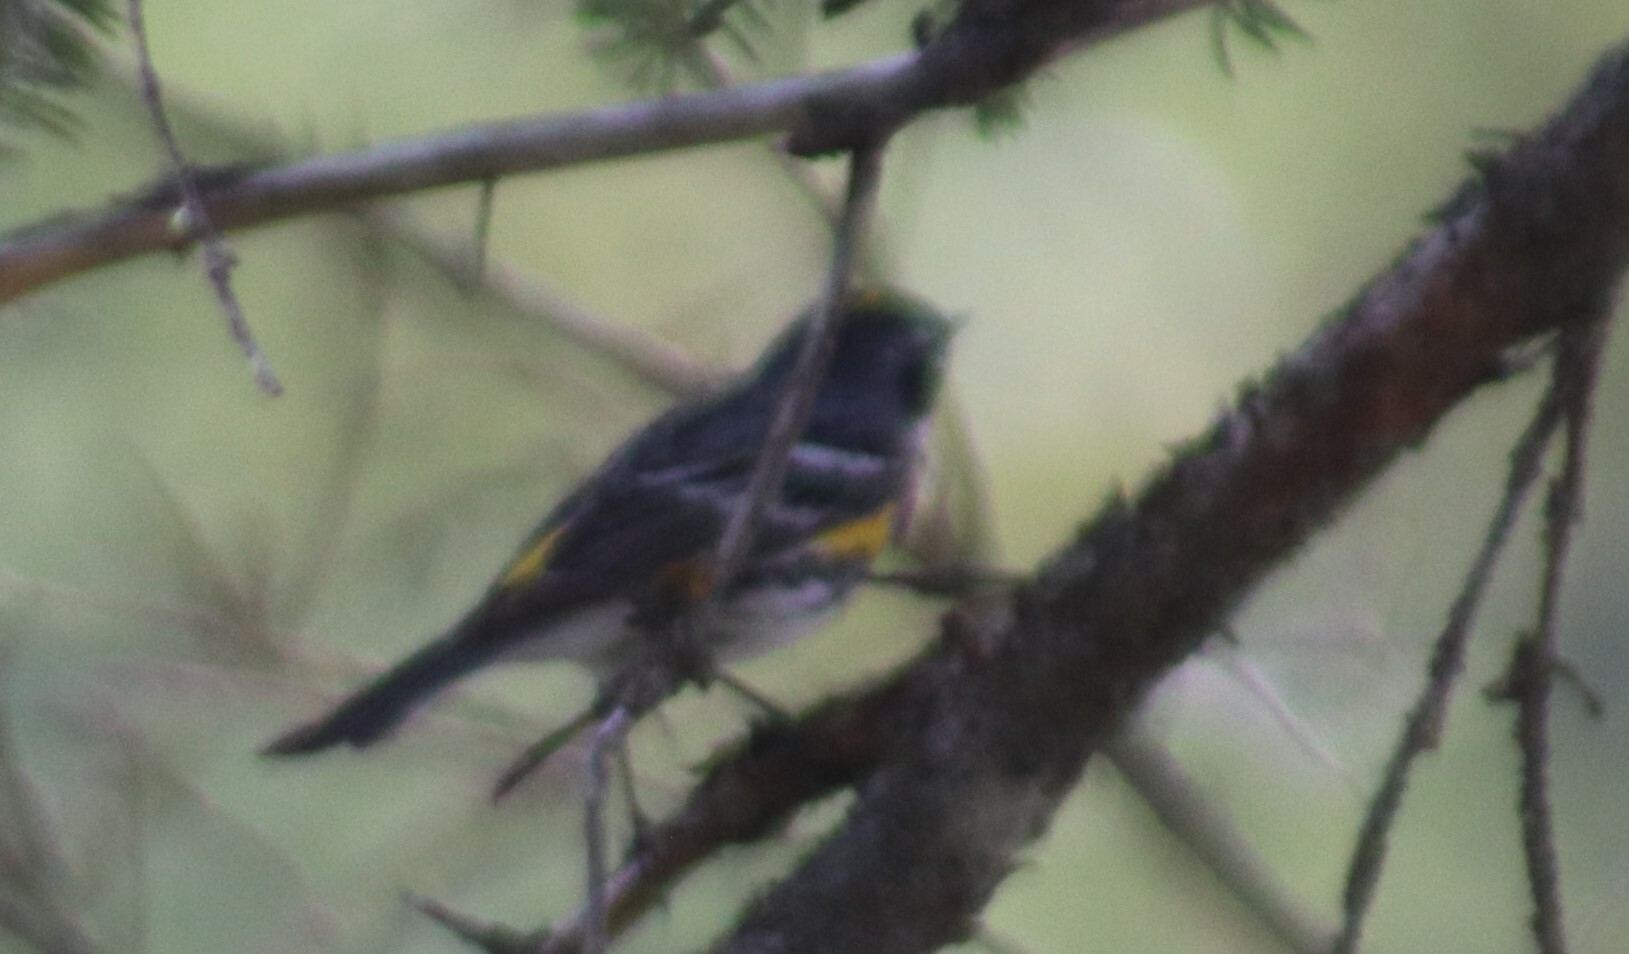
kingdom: Animalia
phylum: Chordata
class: Aves
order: Passeriformes
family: Parulidae
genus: Setophaga
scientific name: Setophaga coronata
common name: Myrtle warbler
